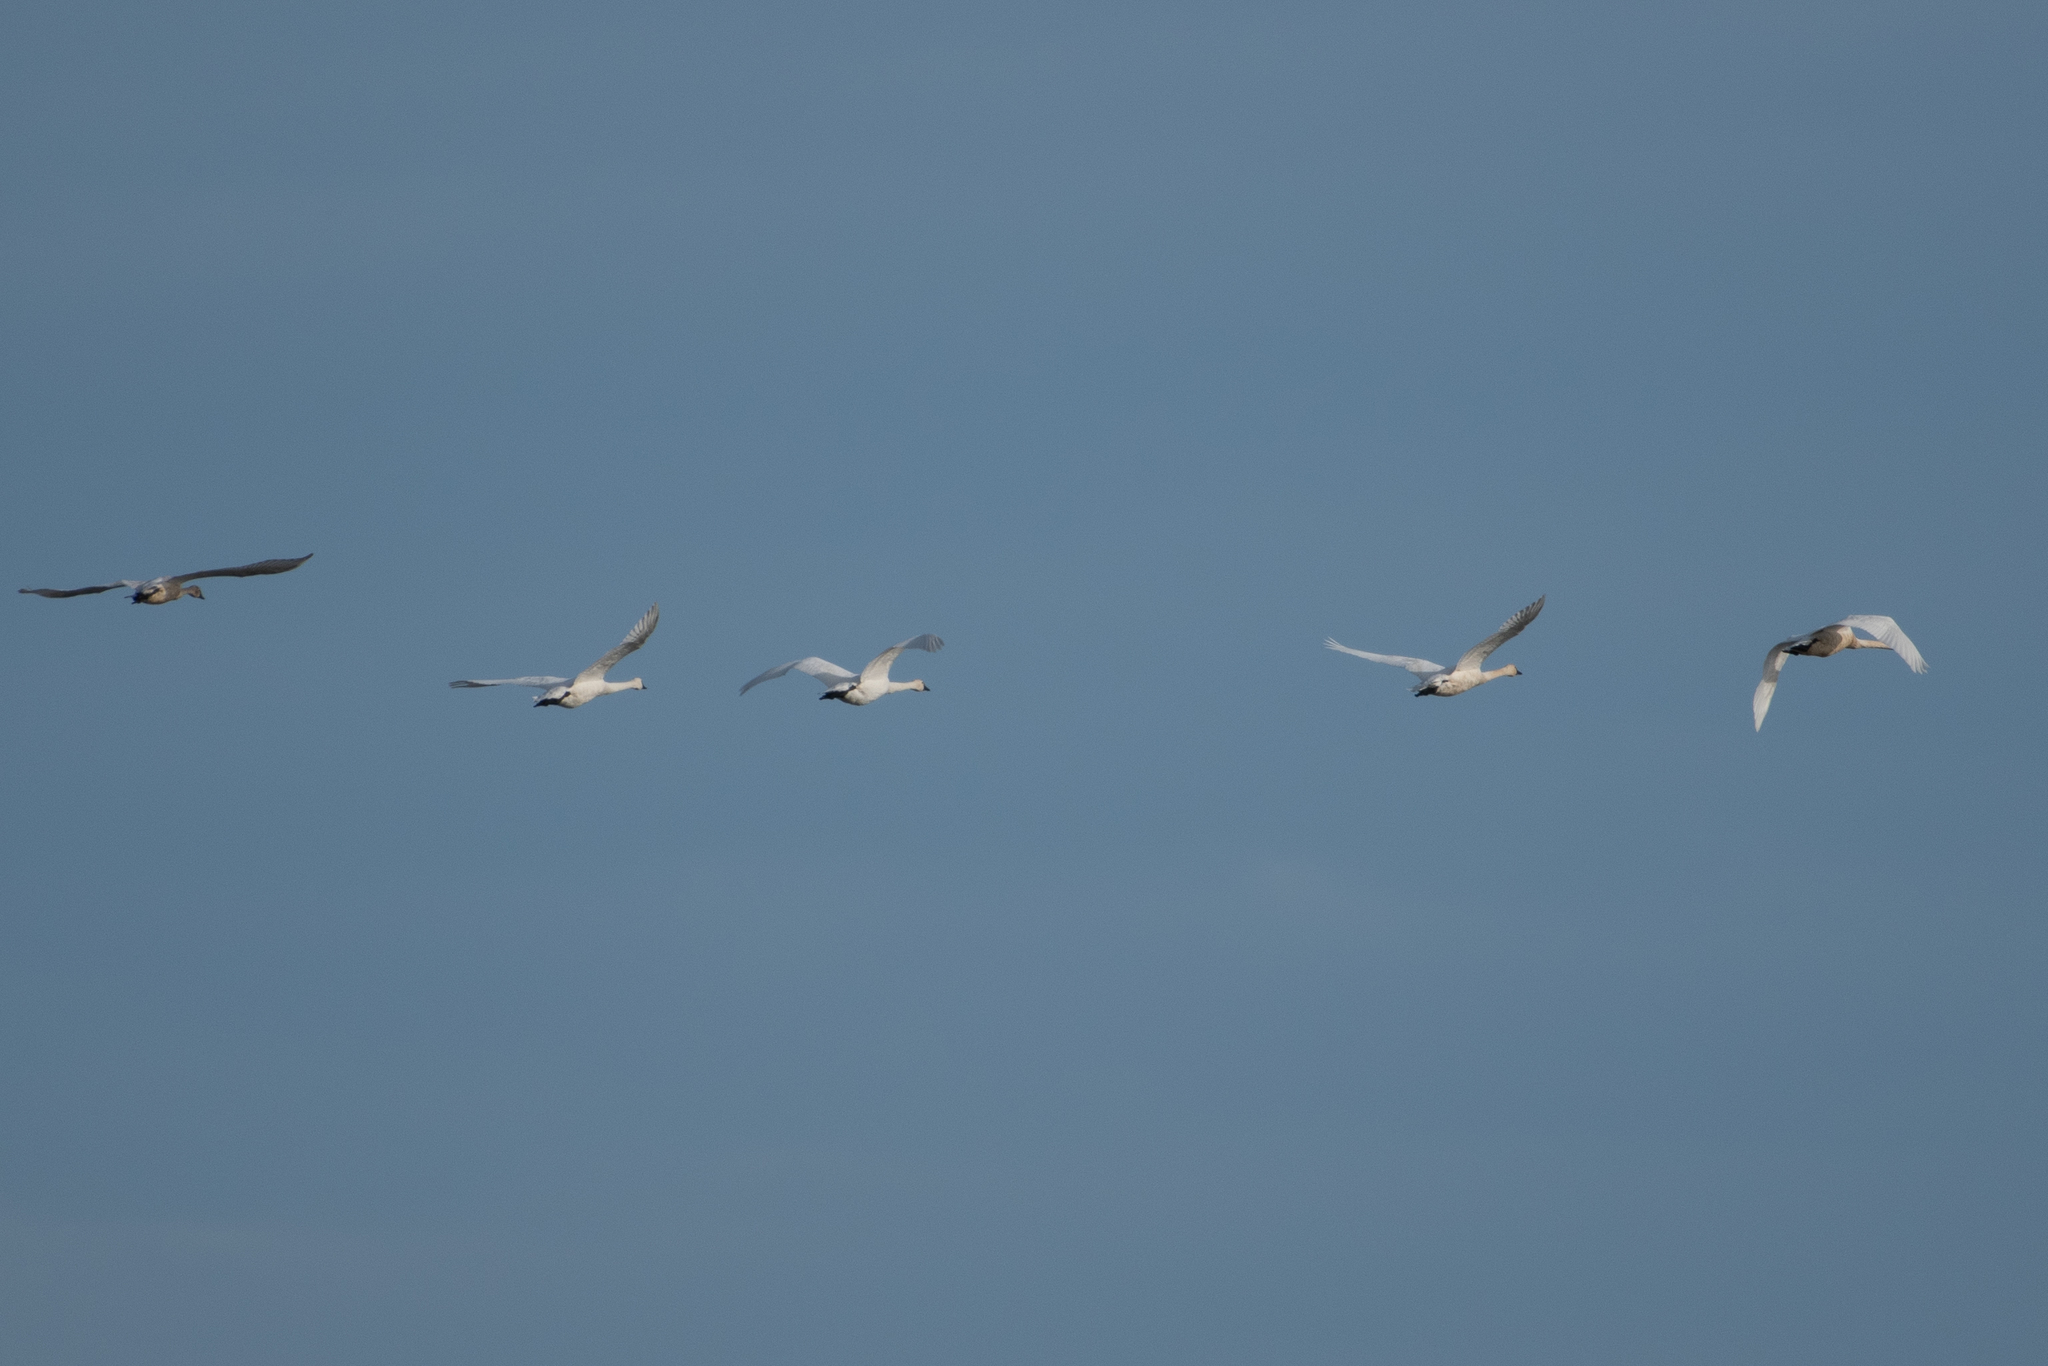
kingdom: Animalia
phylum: Chordata
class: Aves
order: Anseriformes
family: Anatidae
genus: Cygnus
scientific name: Cygnus columbianus
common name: Tundra swan
